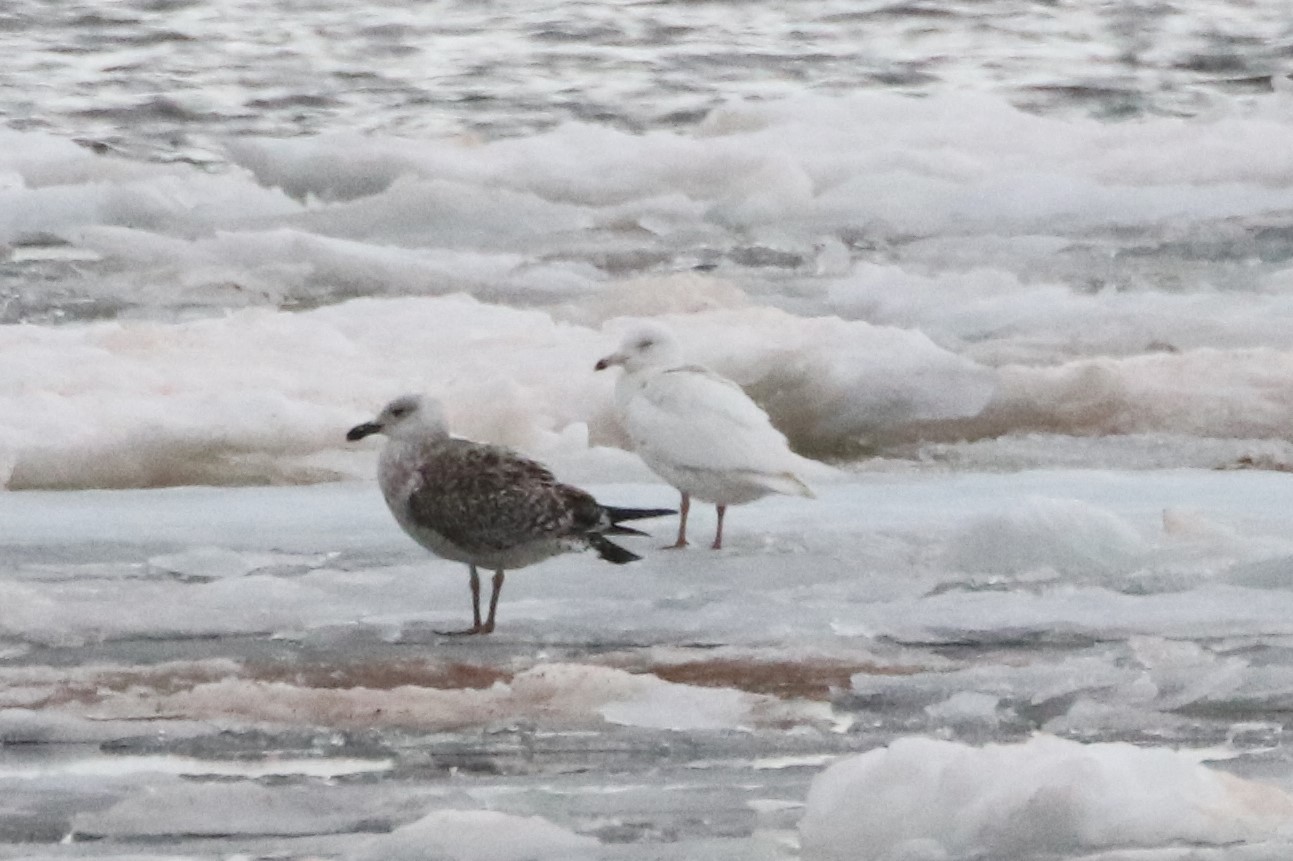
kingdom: Animalia
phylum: Chordata
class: Aves
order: Charadriiformes
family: Laridae
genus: Larus
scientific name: Larus hyperboreus
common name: Glaucous gull
